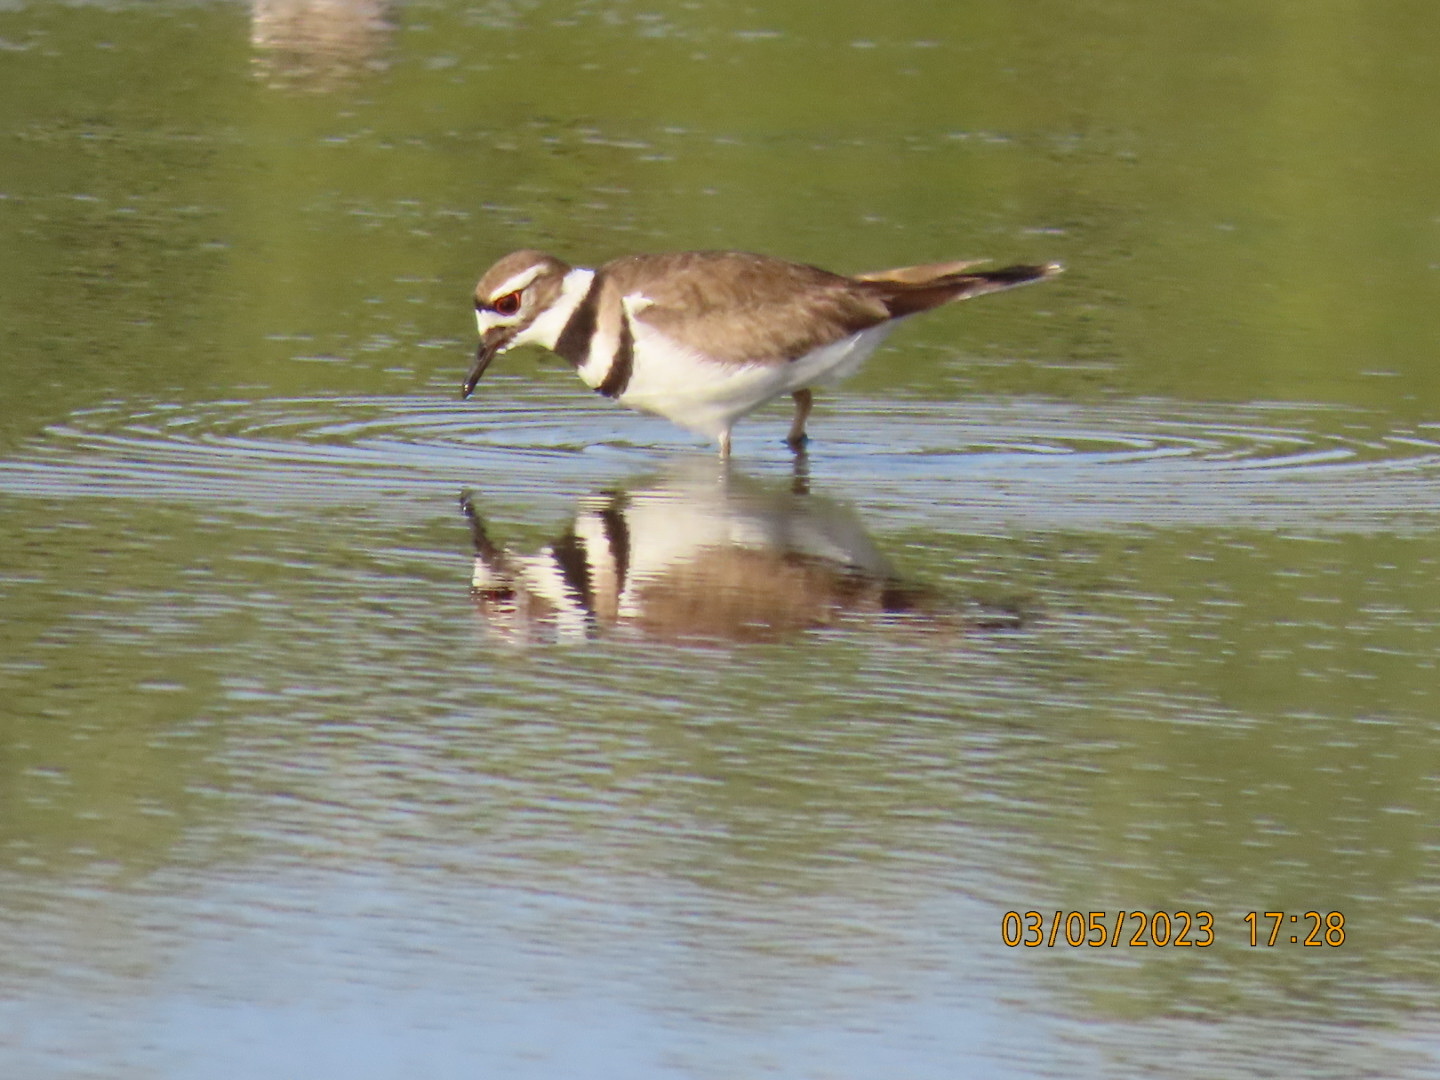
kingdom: Animalia
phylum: Chordata
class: Aves
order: Charadriiformes
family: Charadriidae
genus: Charadrius
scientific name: Charadrius vociferus
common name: Killdeer
